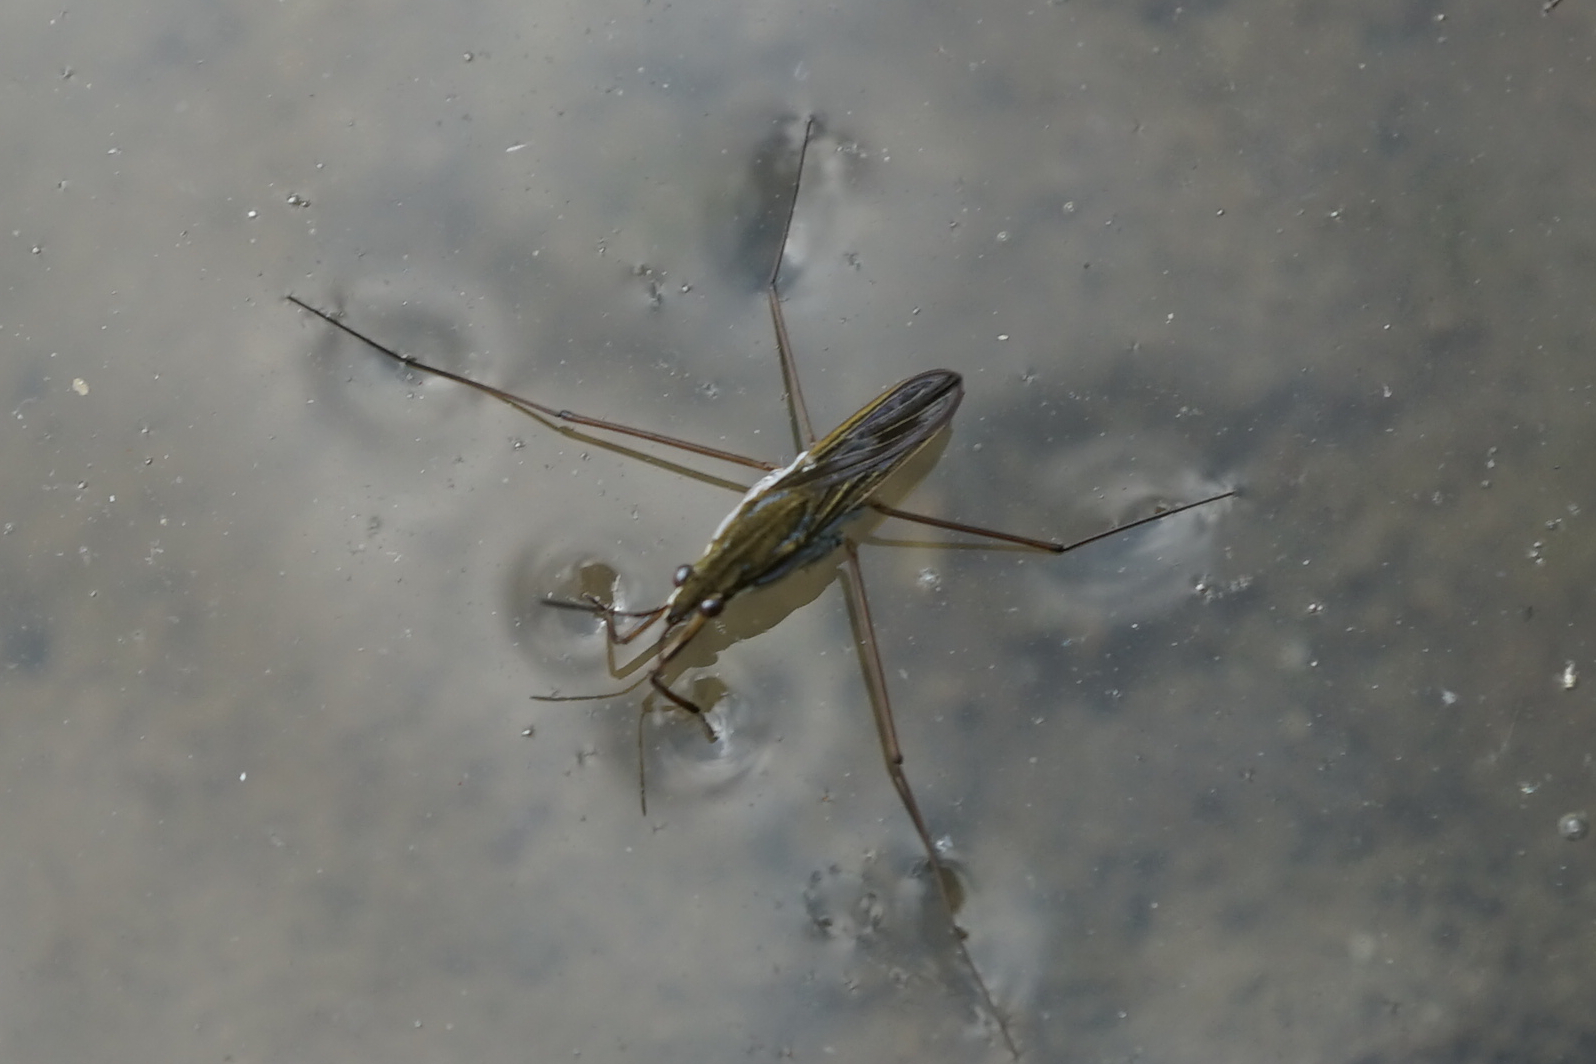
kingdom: Animalia
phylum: Arthropoda
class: Insecta
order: Hemiptera
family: Gerridae
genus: Gerris
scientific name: Gerris latiabdominis
